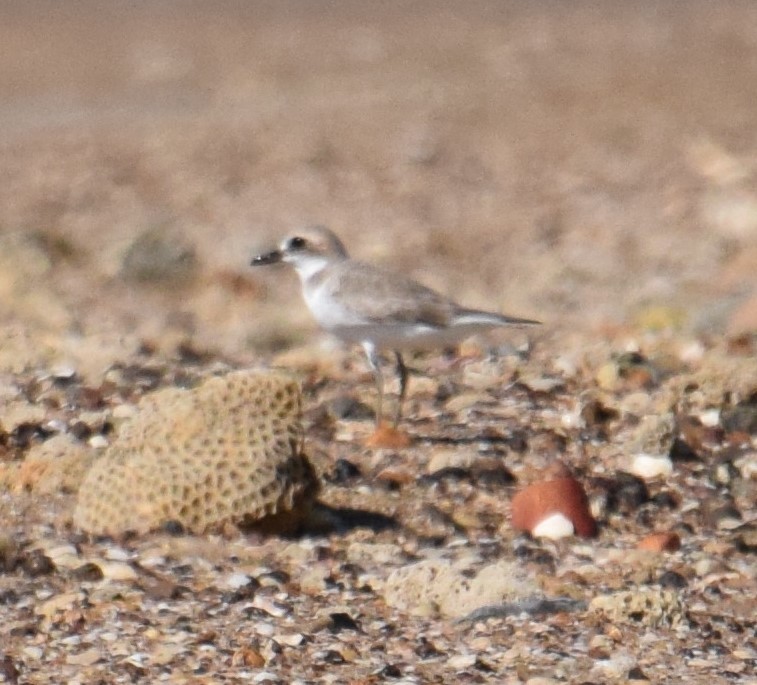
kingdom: Animalia
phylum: Chordata
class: Aves
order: Charadriiformes
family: Charadriidae
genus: Charadrius
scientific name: Charadrius leschenaultii
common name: Greater sand plover
